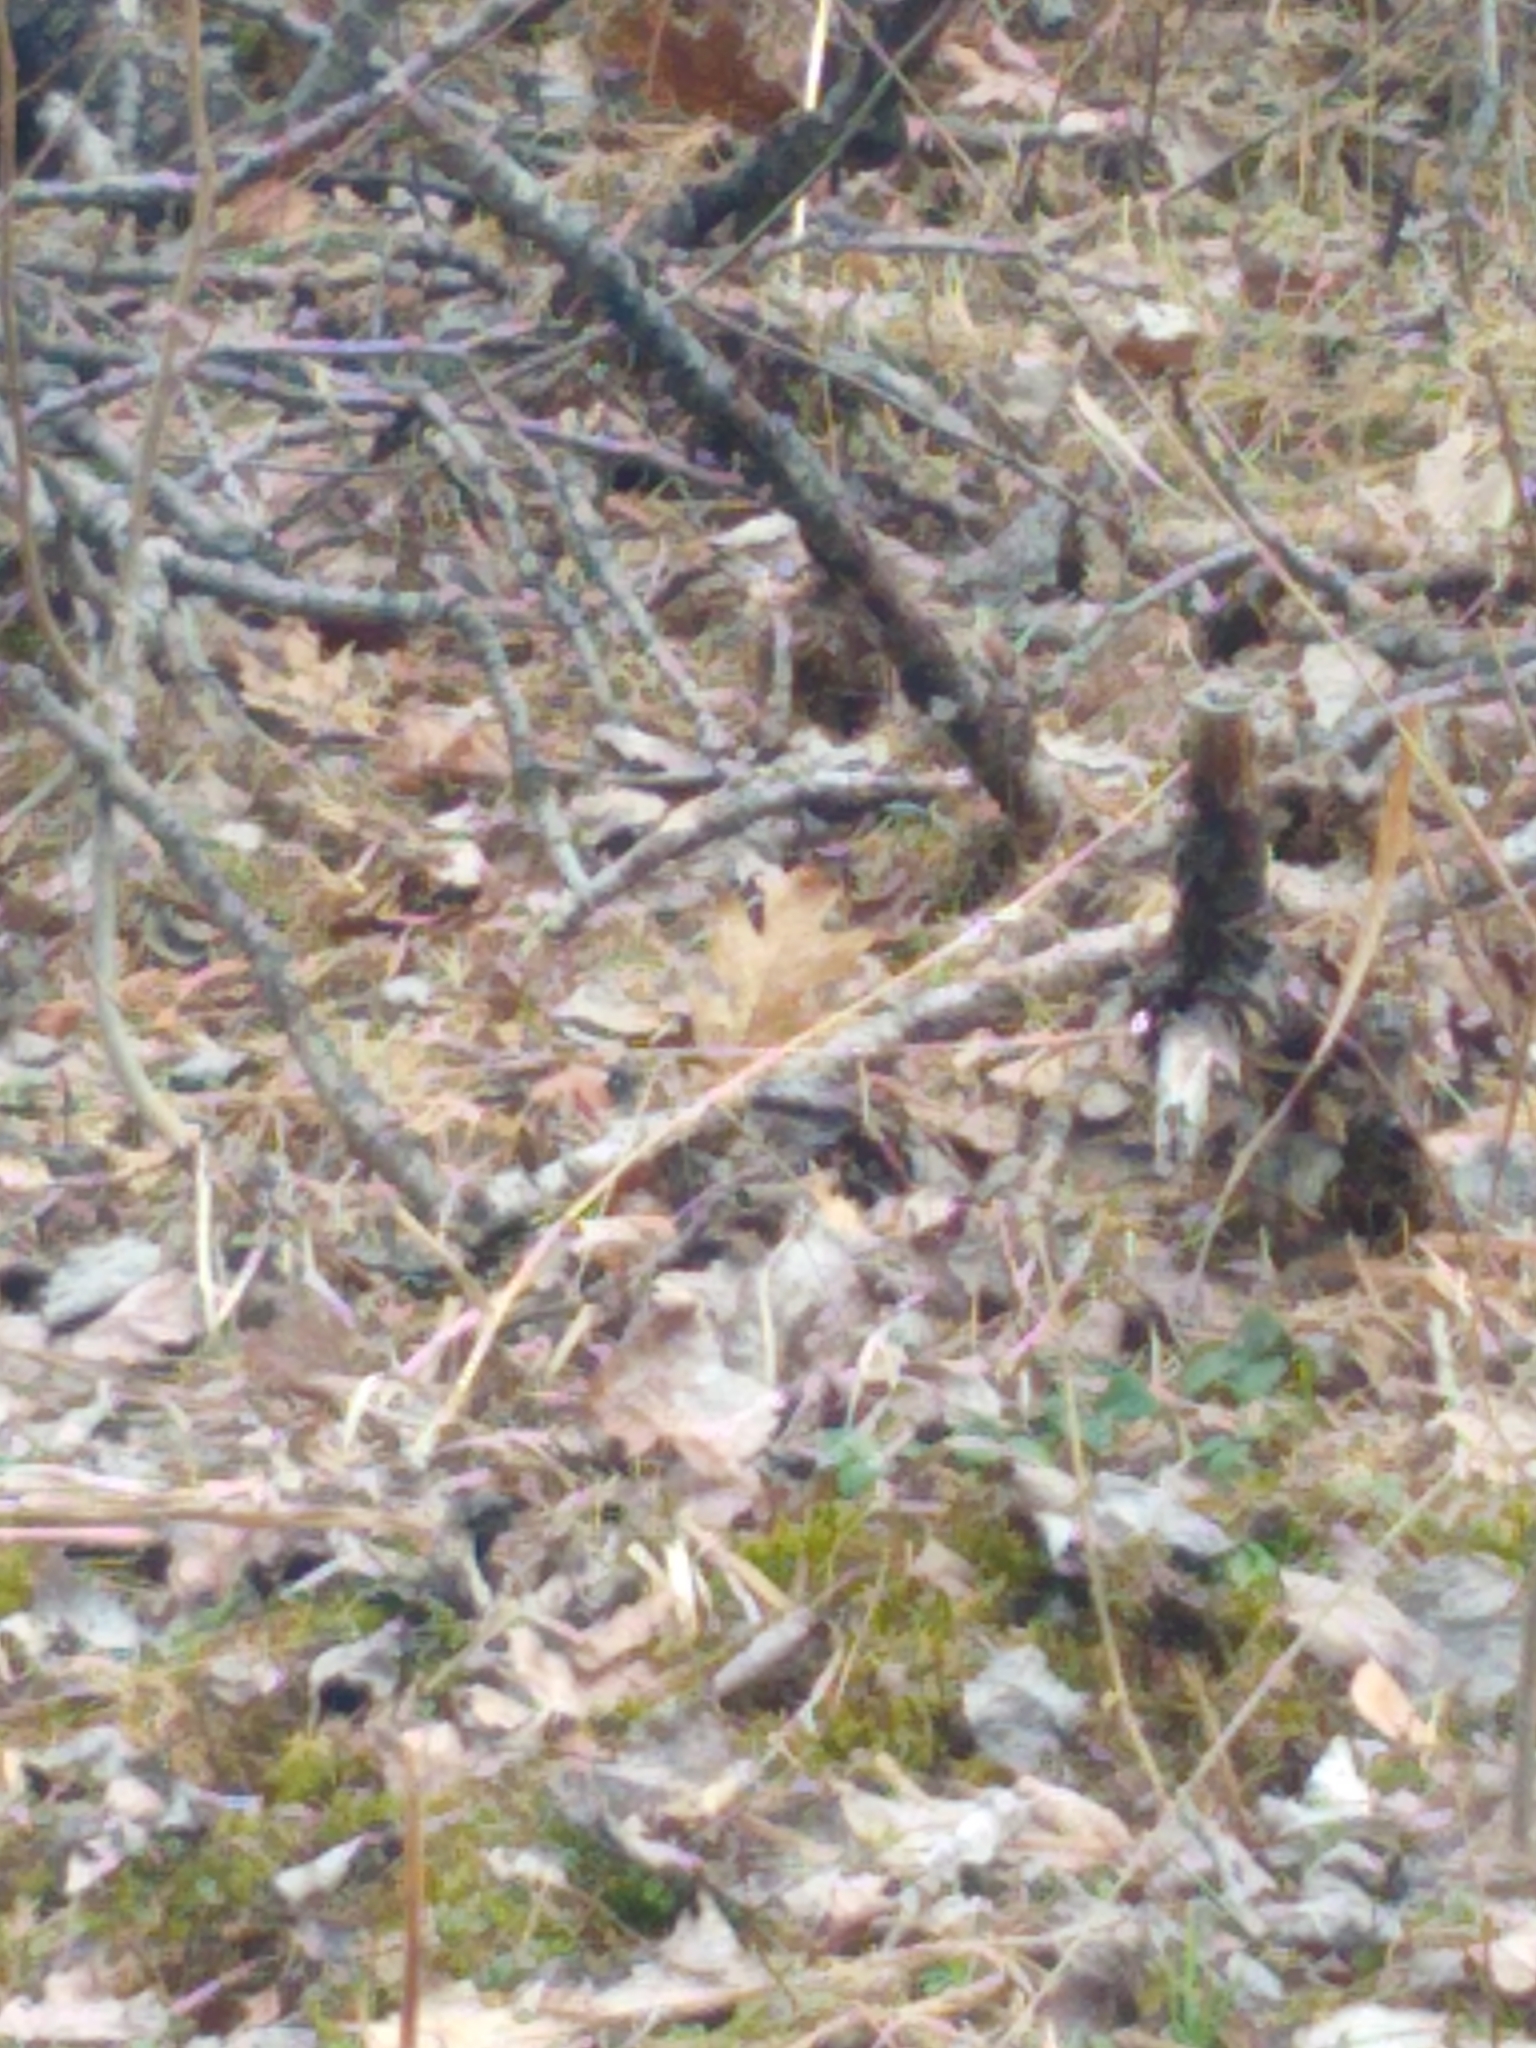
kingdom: Animalia
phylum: Chordata
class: Aves
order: Passeriformes
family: Passerellidae
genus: Melospiza
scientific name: Melospiza melodia
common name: Song sparrow
